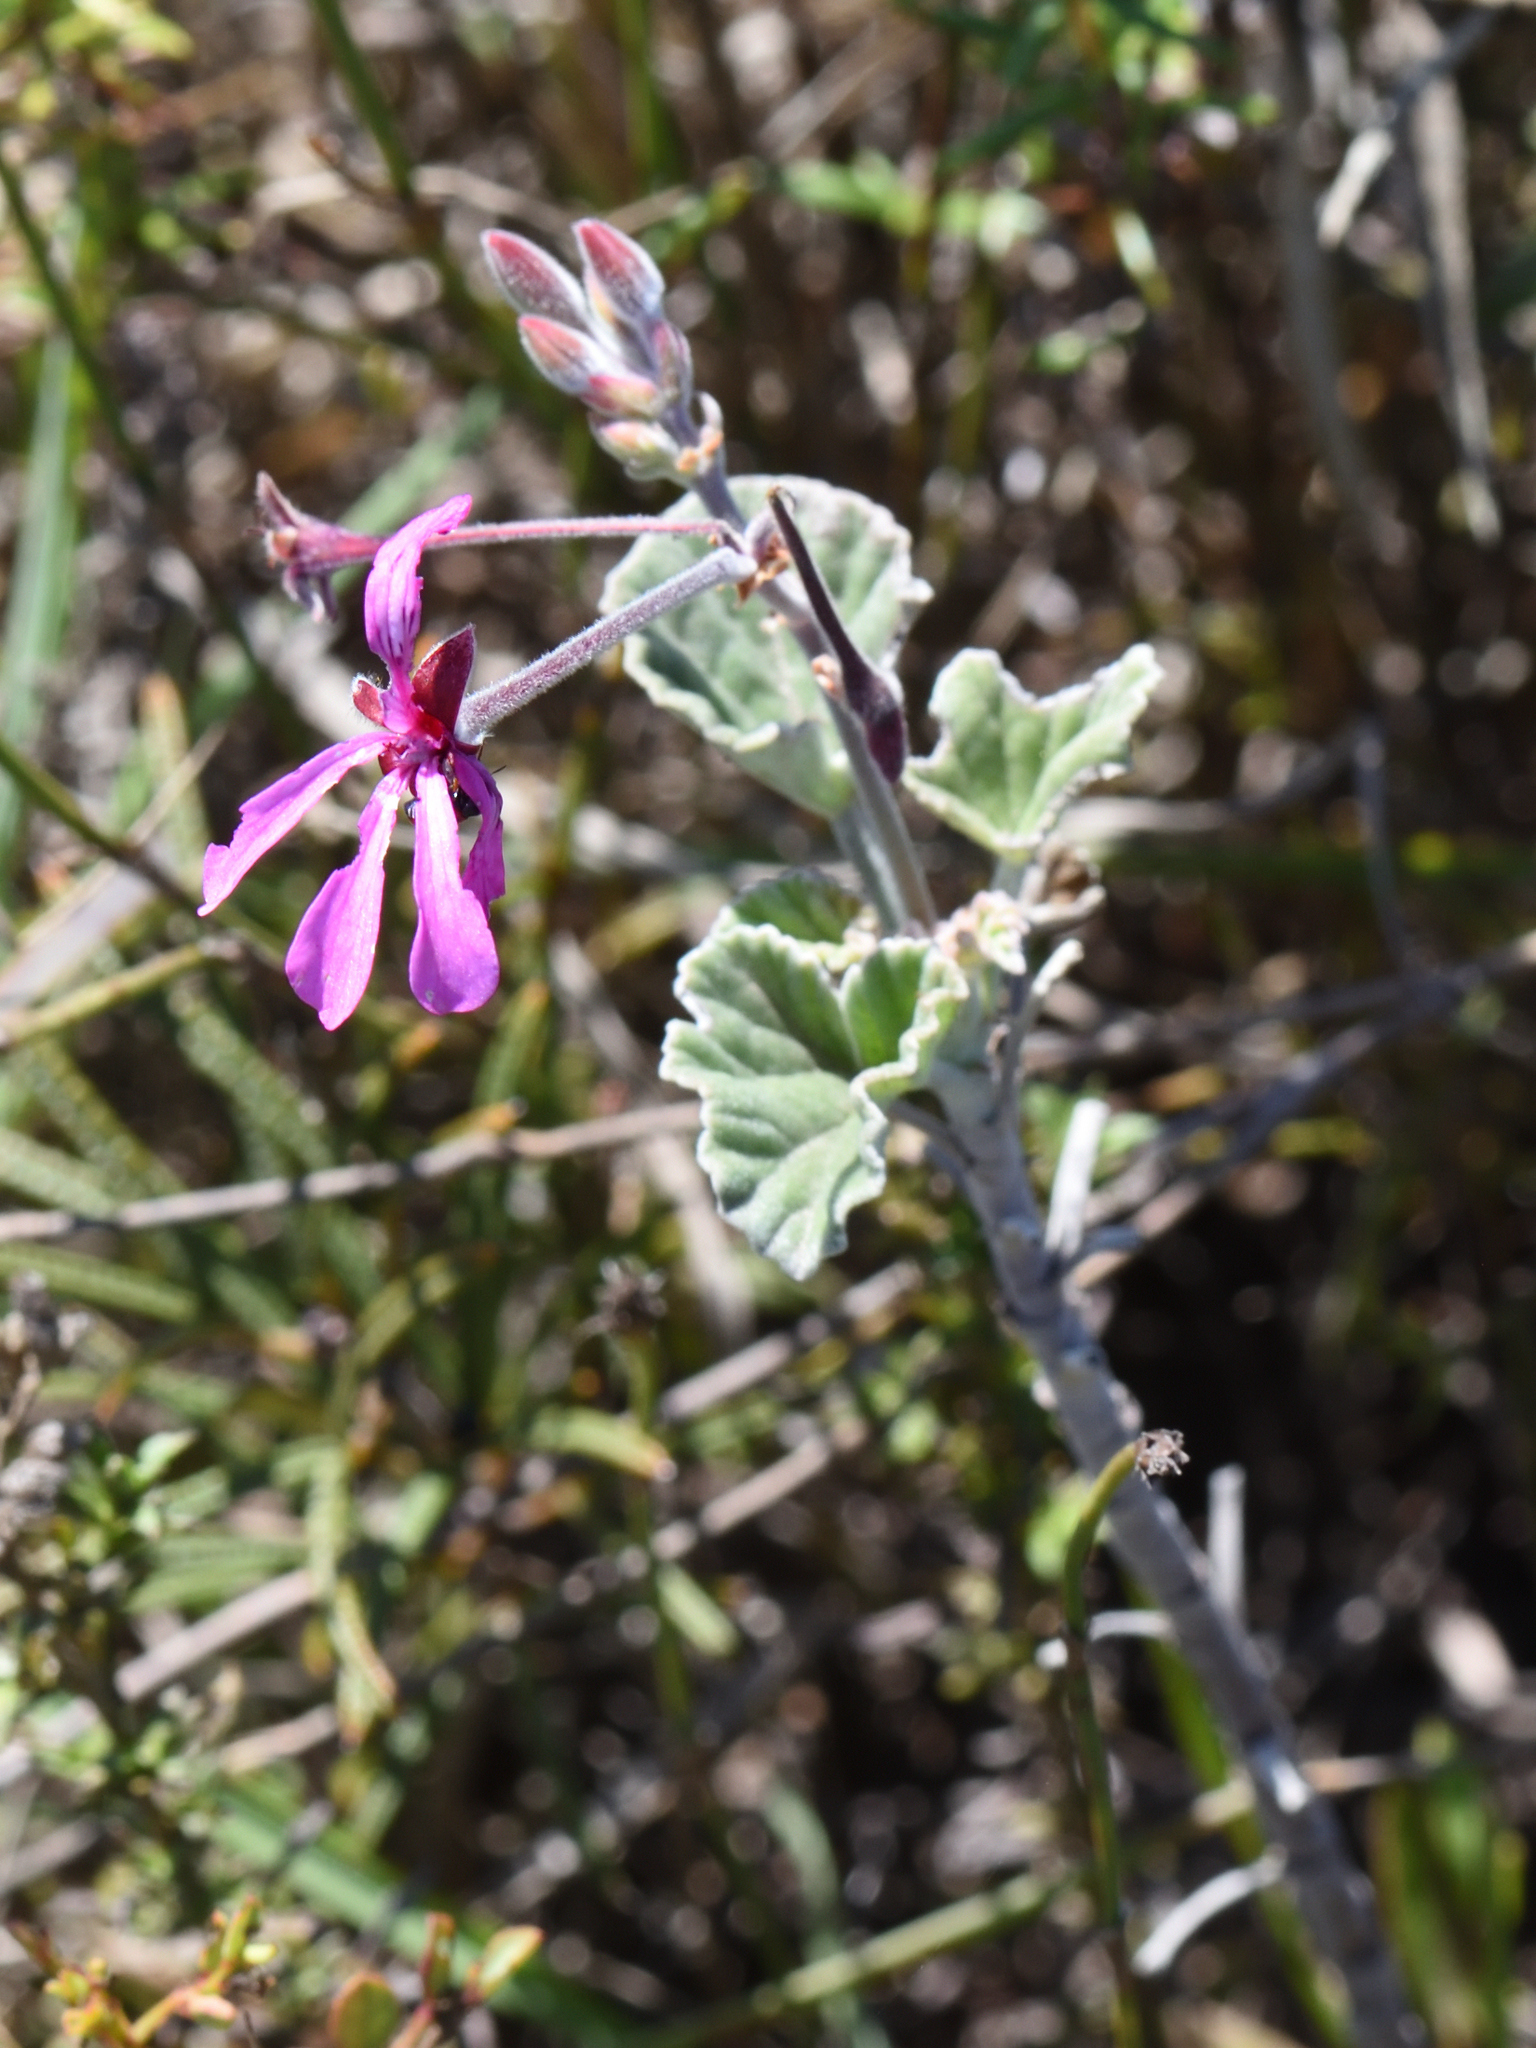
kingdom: Plantae
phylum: Tracheophyta
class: Magnoliopsida
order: Geraniales
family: Geraniaceae
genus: Pelargonium
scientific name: Pelargonium reniforme
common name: Kidney-leaf pelargonium
